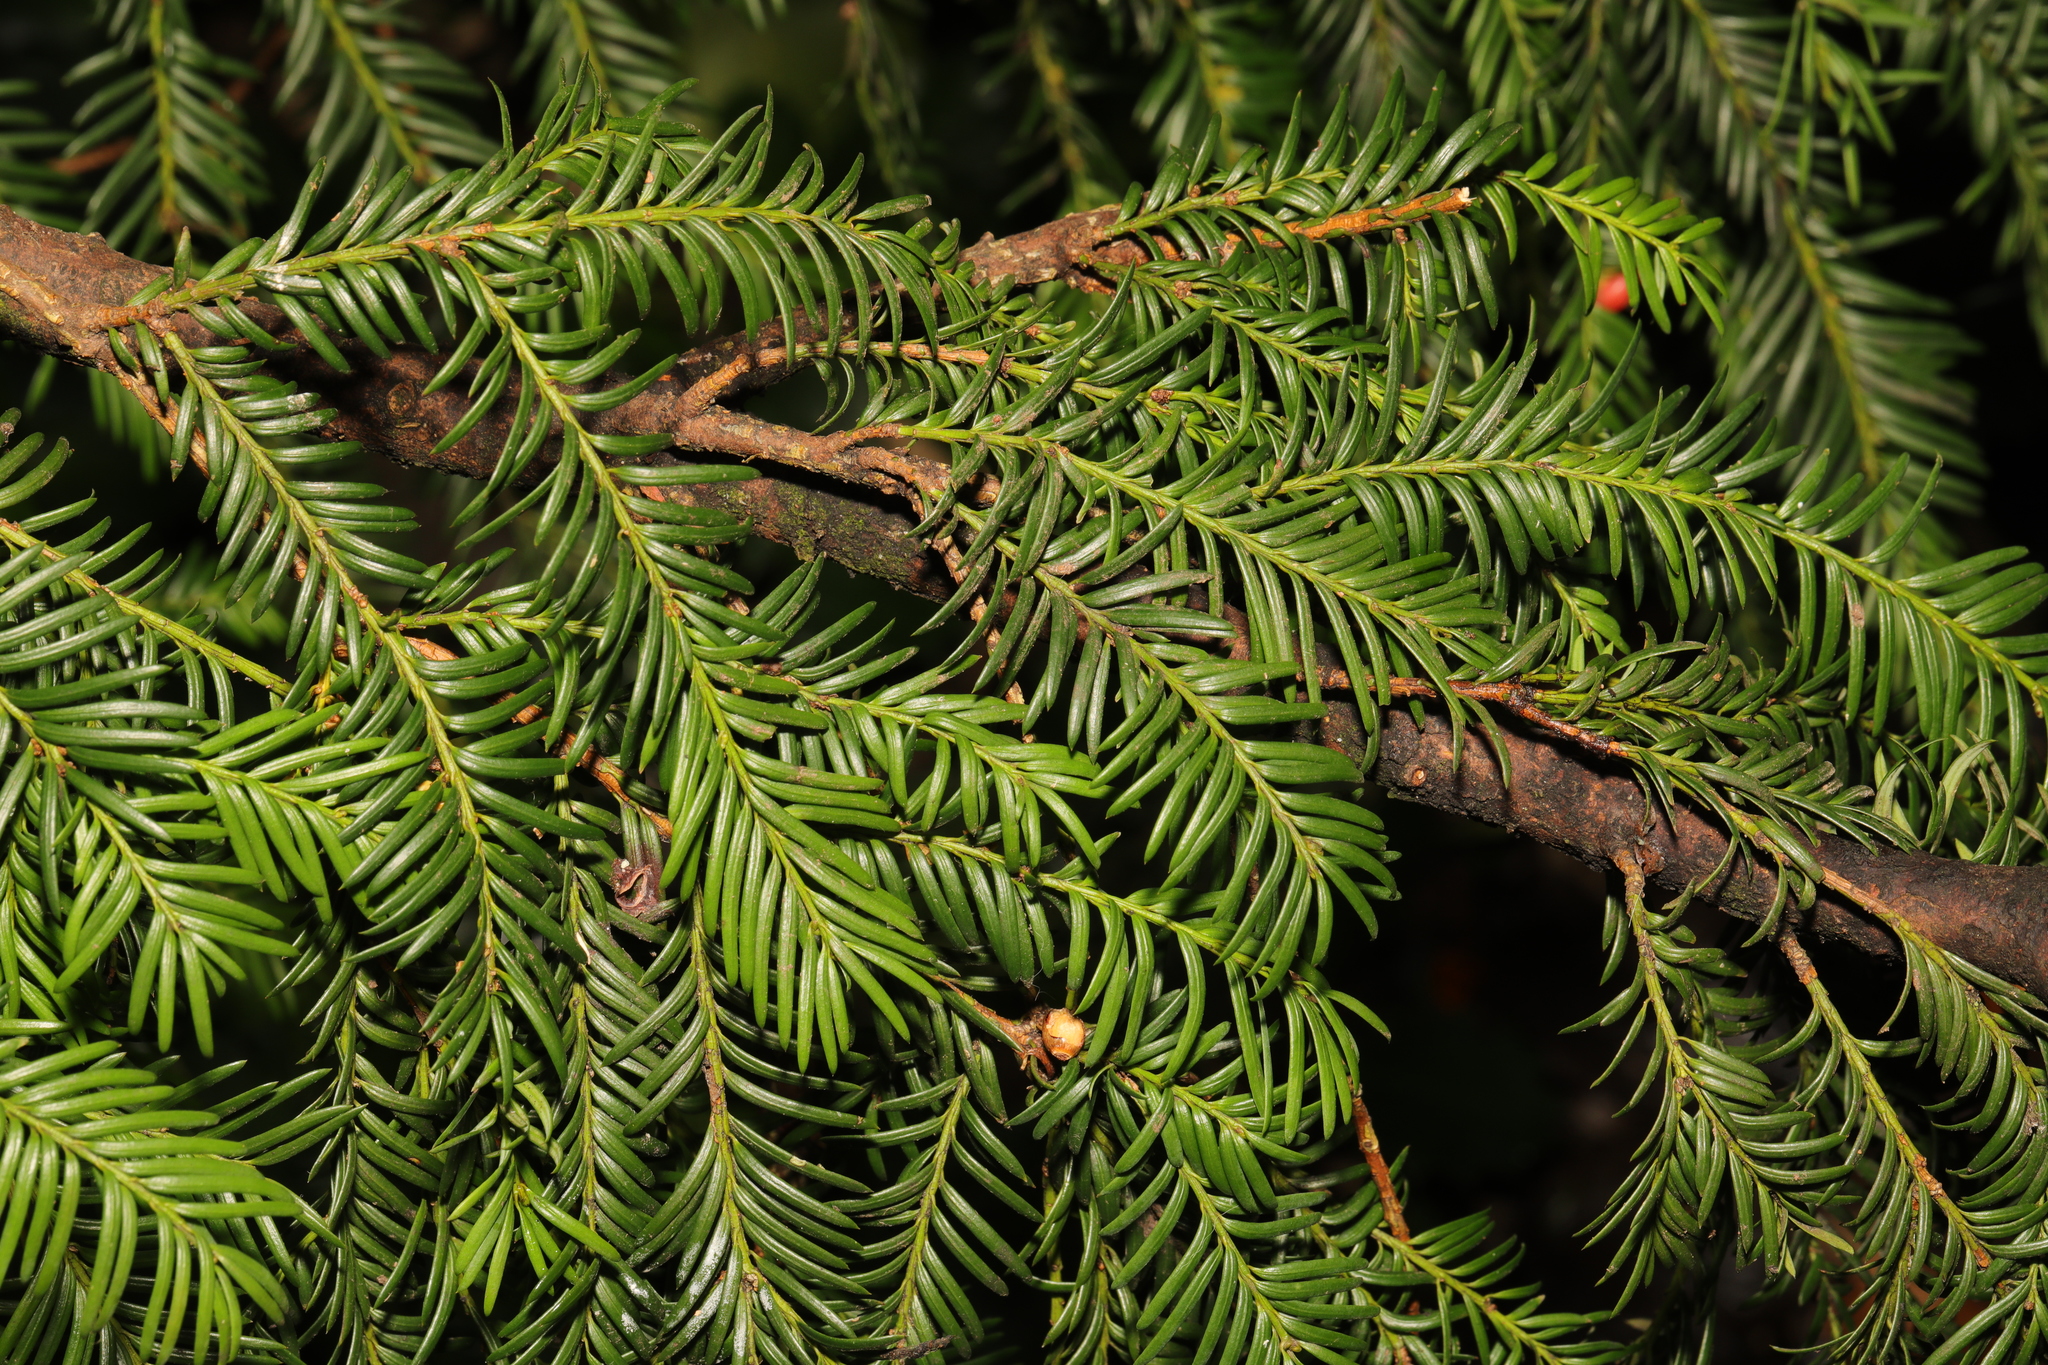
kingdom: Plantae
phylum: Tracheophyta
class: Pinopsida
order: Pinales
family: Taxaceae
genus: Taxus
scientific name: Taxus baccata
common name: Yew
